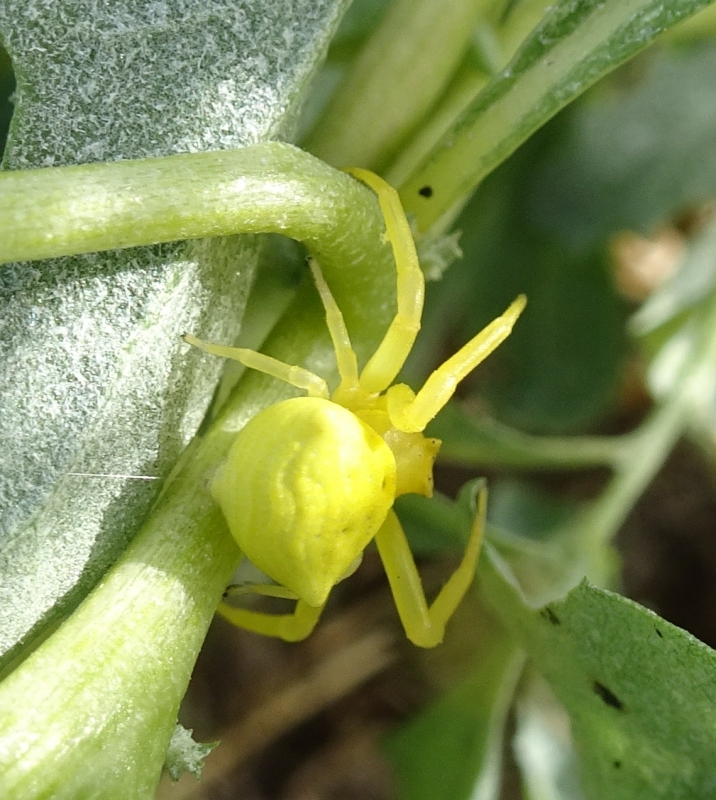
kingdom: Animalia
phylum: Arthropoda
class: Arachnida
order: Araneae
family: Thomisidae
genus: Thomisus
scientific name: Thomisus onustus
